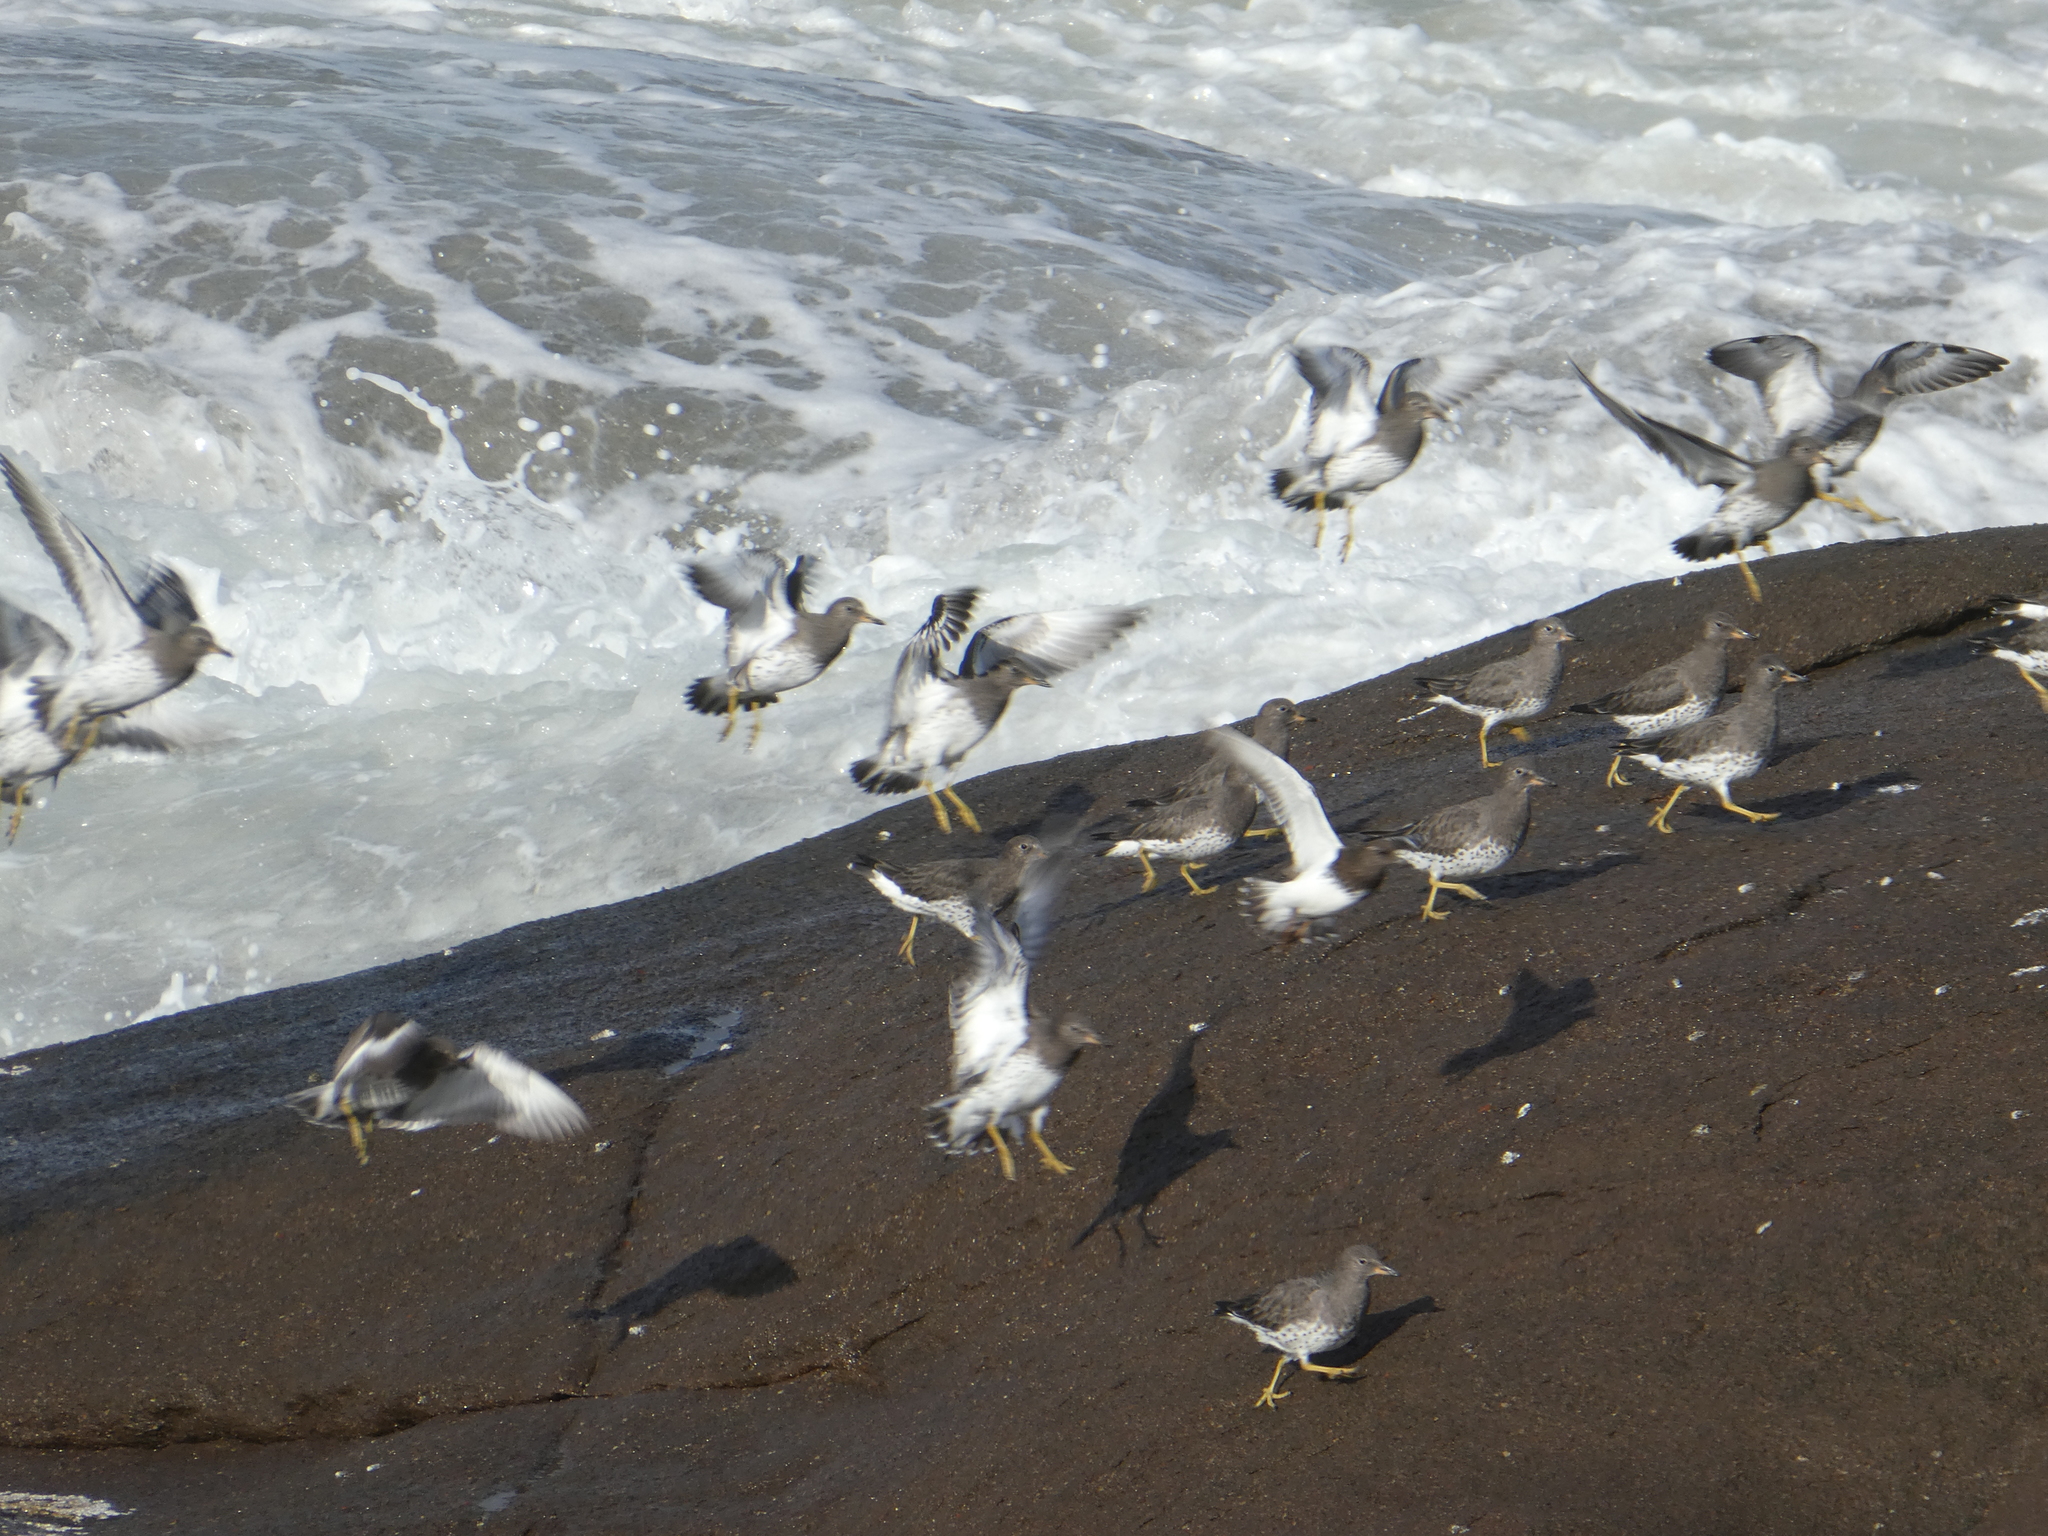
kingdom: Animalia
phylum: Chordata
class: Aves
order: Charadriiformes
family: Scolopacidae
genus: Calidris
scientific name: Calidris virgata
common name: Surfbird
